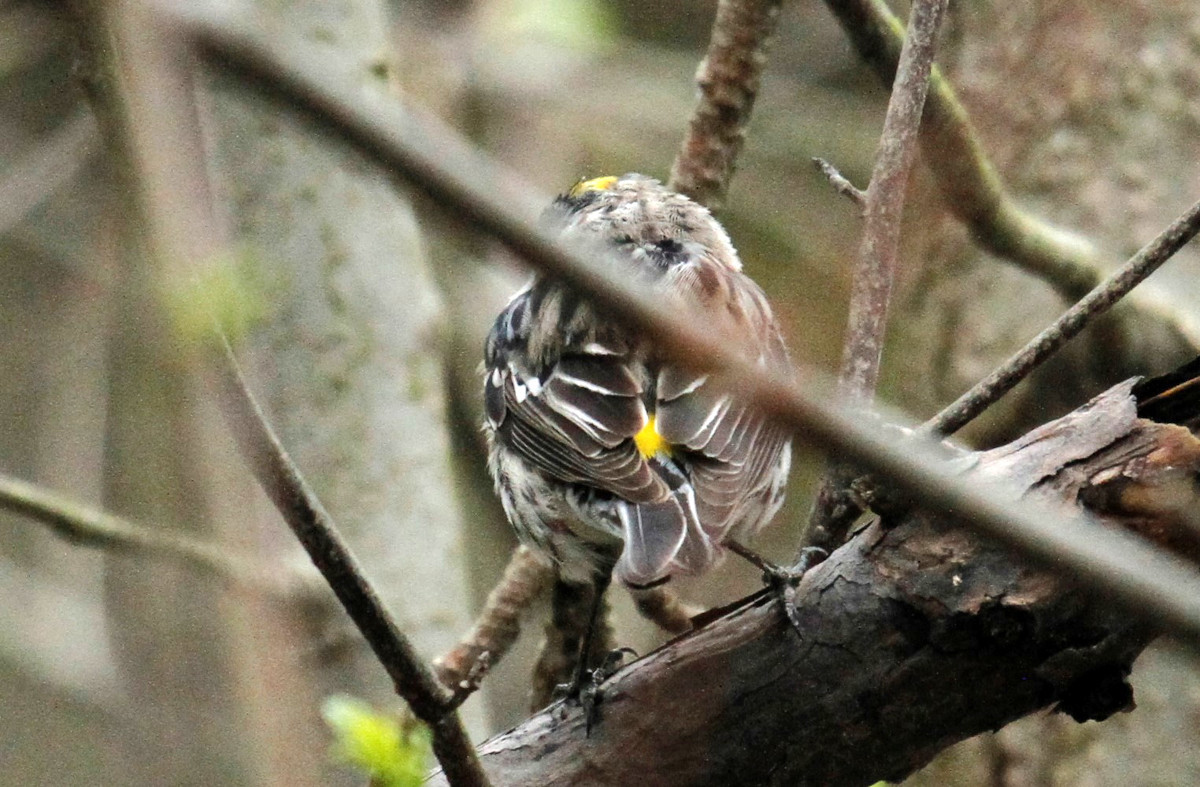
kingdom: Animalia
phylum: Chordata
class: Aves
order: Passeriformes
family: Parulidae
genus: Setophaga
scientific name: Setophaga coronata
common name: Myrtle warbler
